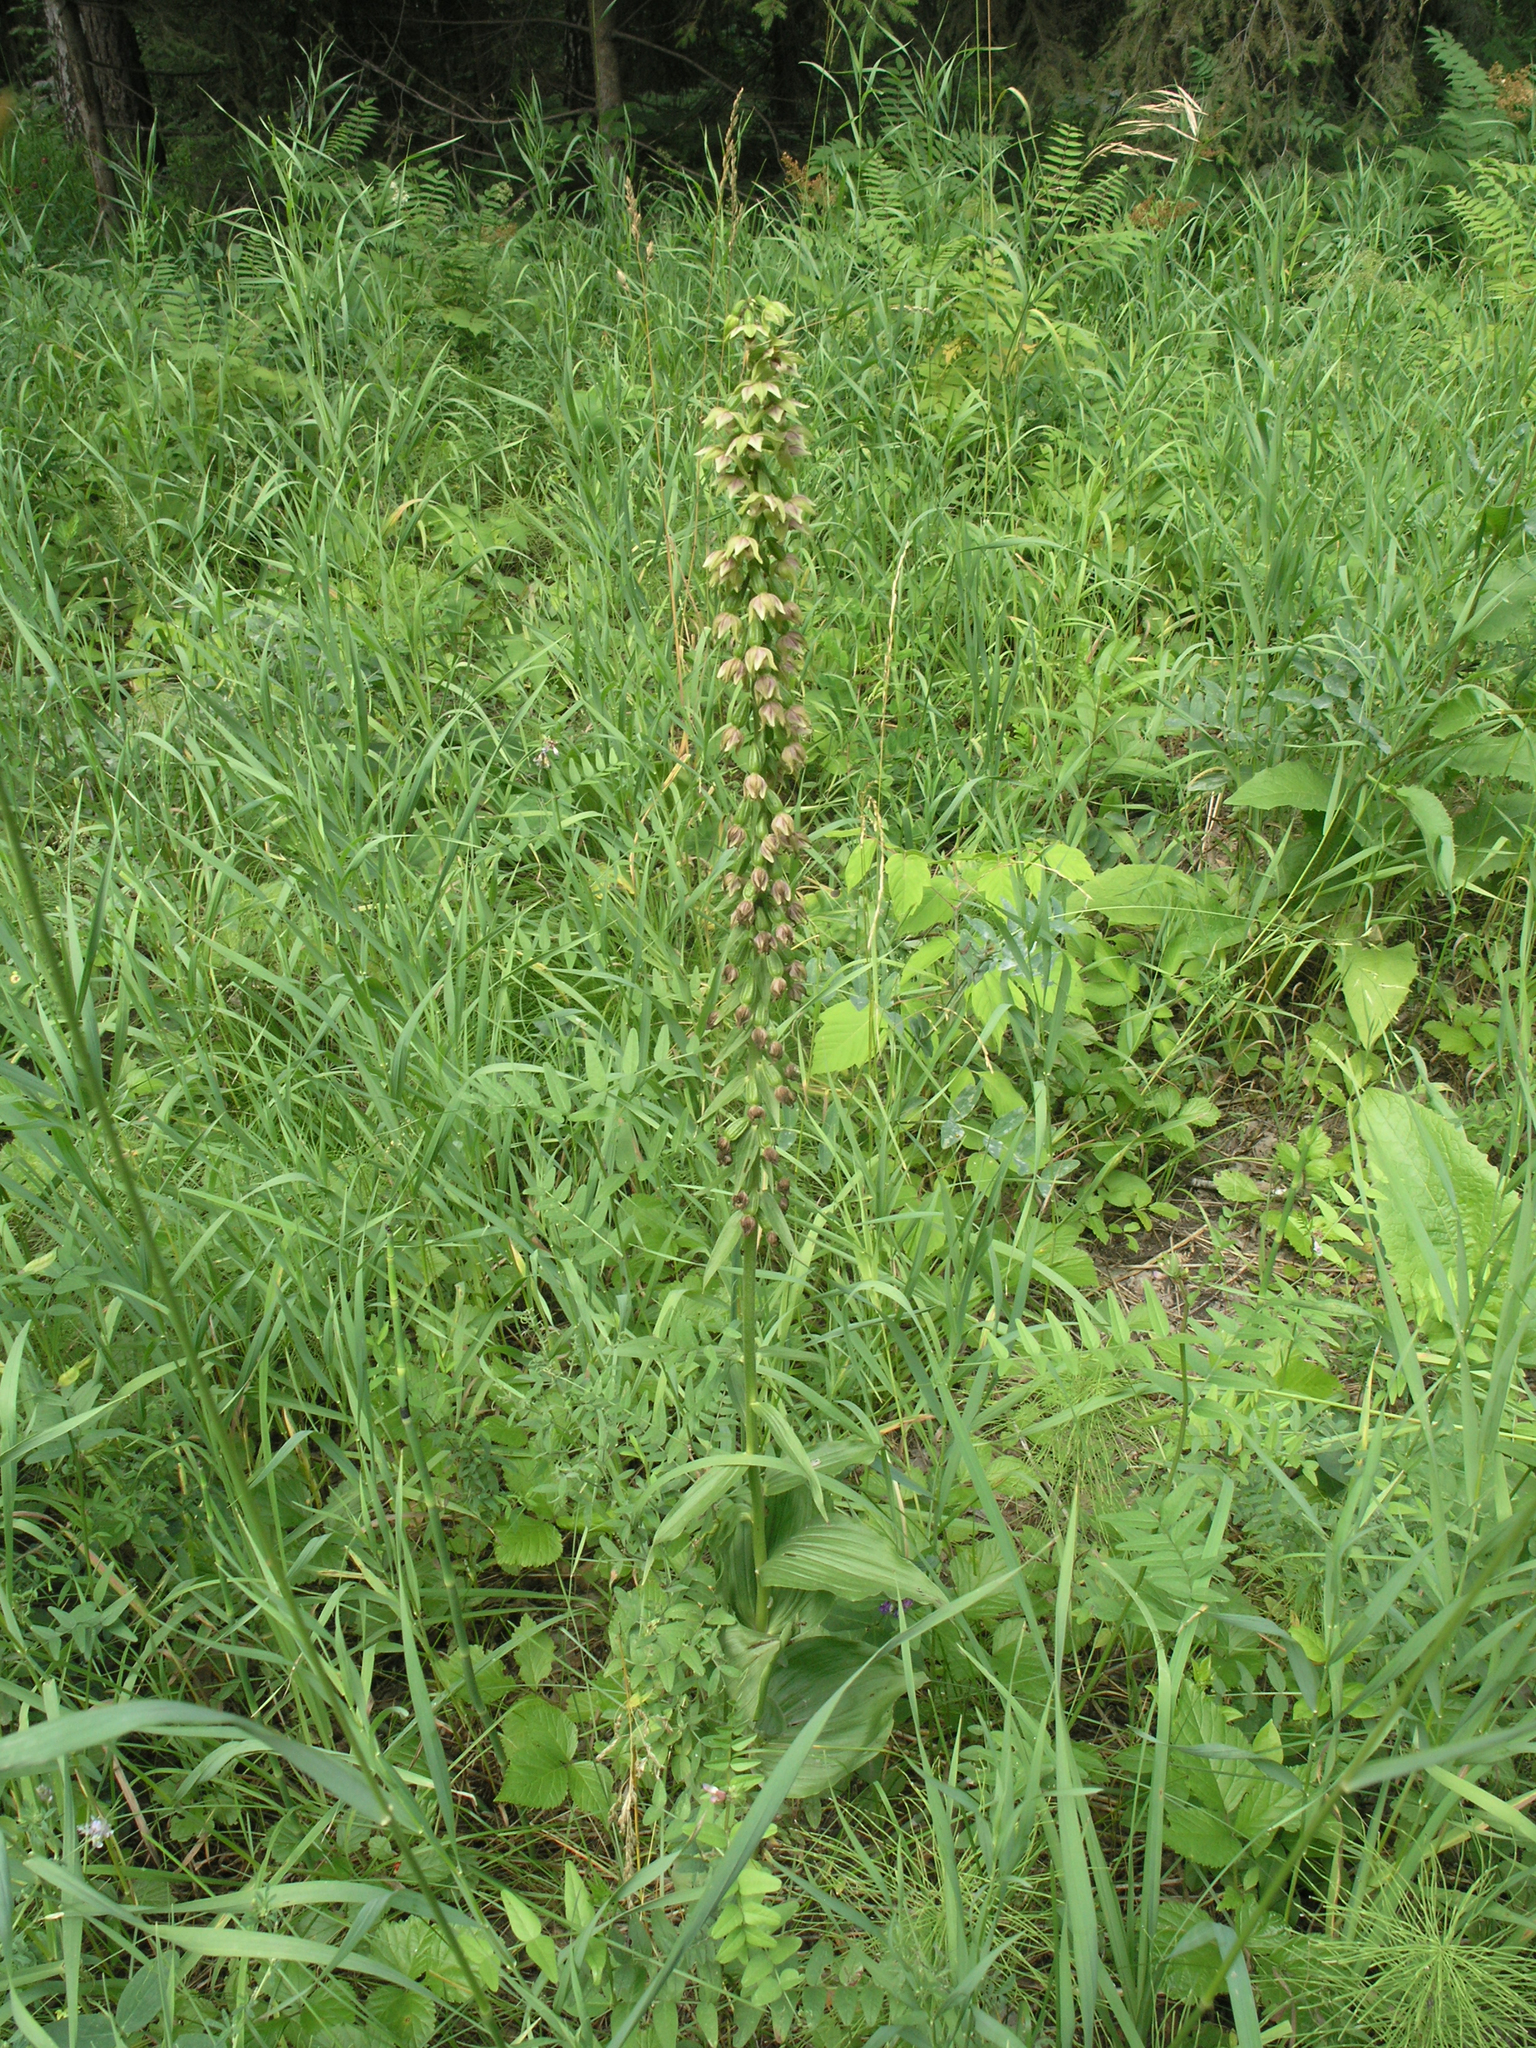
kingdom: Plantae
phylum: Tracheophyta
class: Liliopsida
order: Asparagales
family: Orchidaceae
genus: Epipactis
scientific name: Epipactis helleborine
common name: Broad-leaved helleborine
